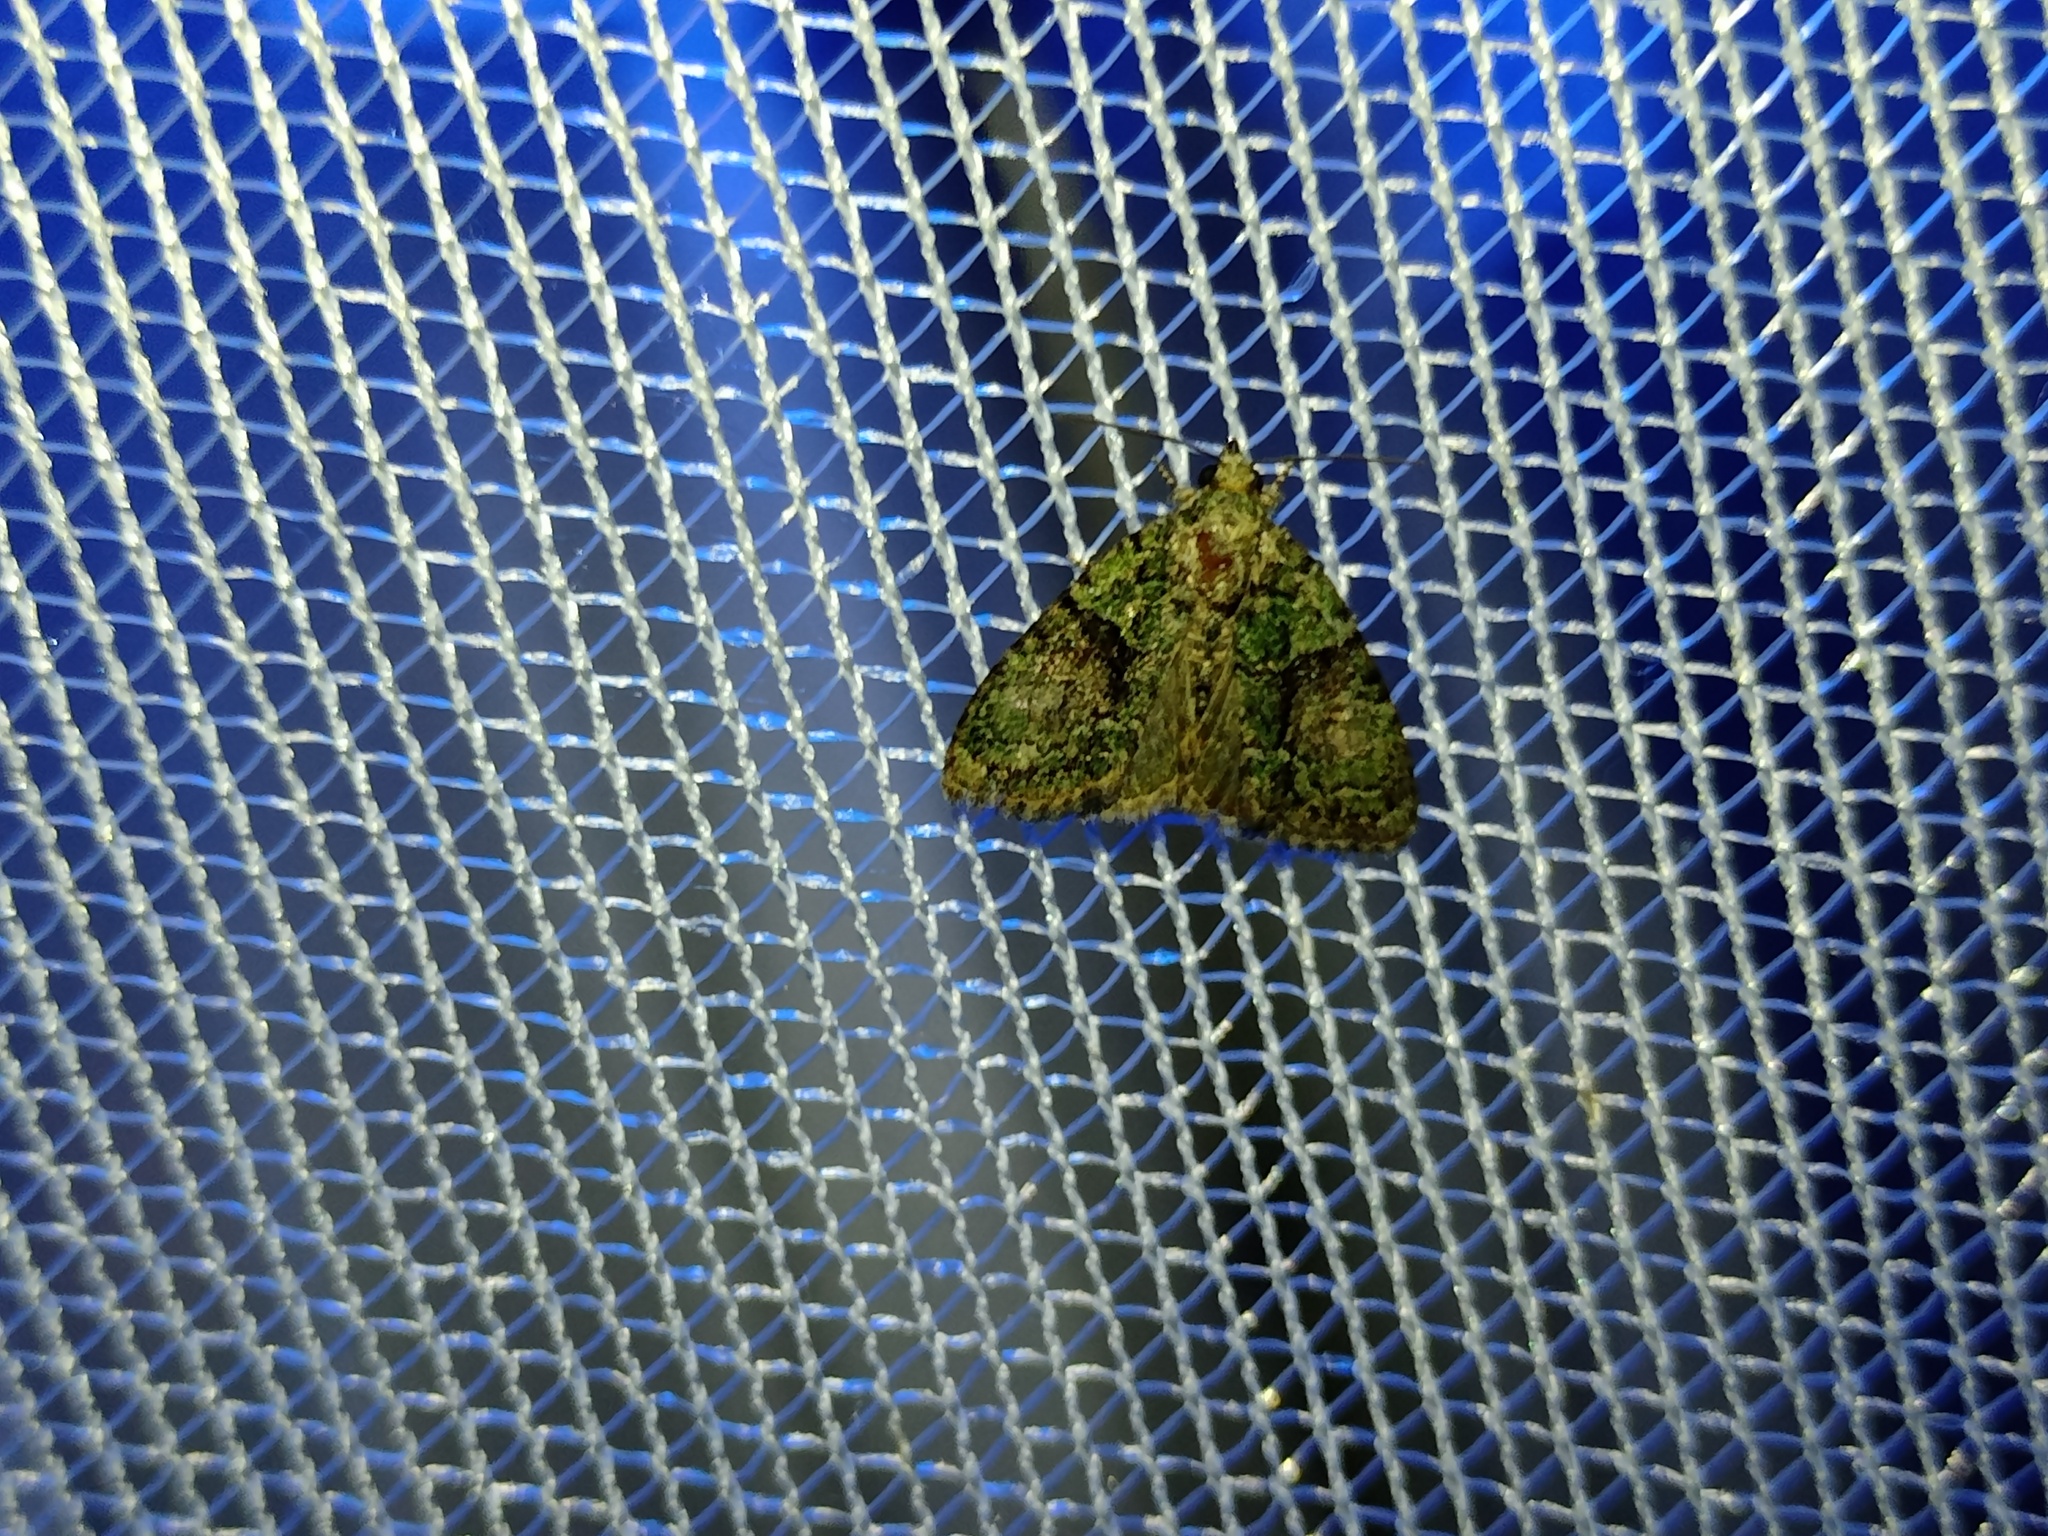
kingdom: Animalia
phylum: Arthropoda
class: Insecta
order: Lepidoptera
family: Noctuidae
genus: Cryphia
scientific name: Cryphia algae
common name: Tree-lichen beauty
